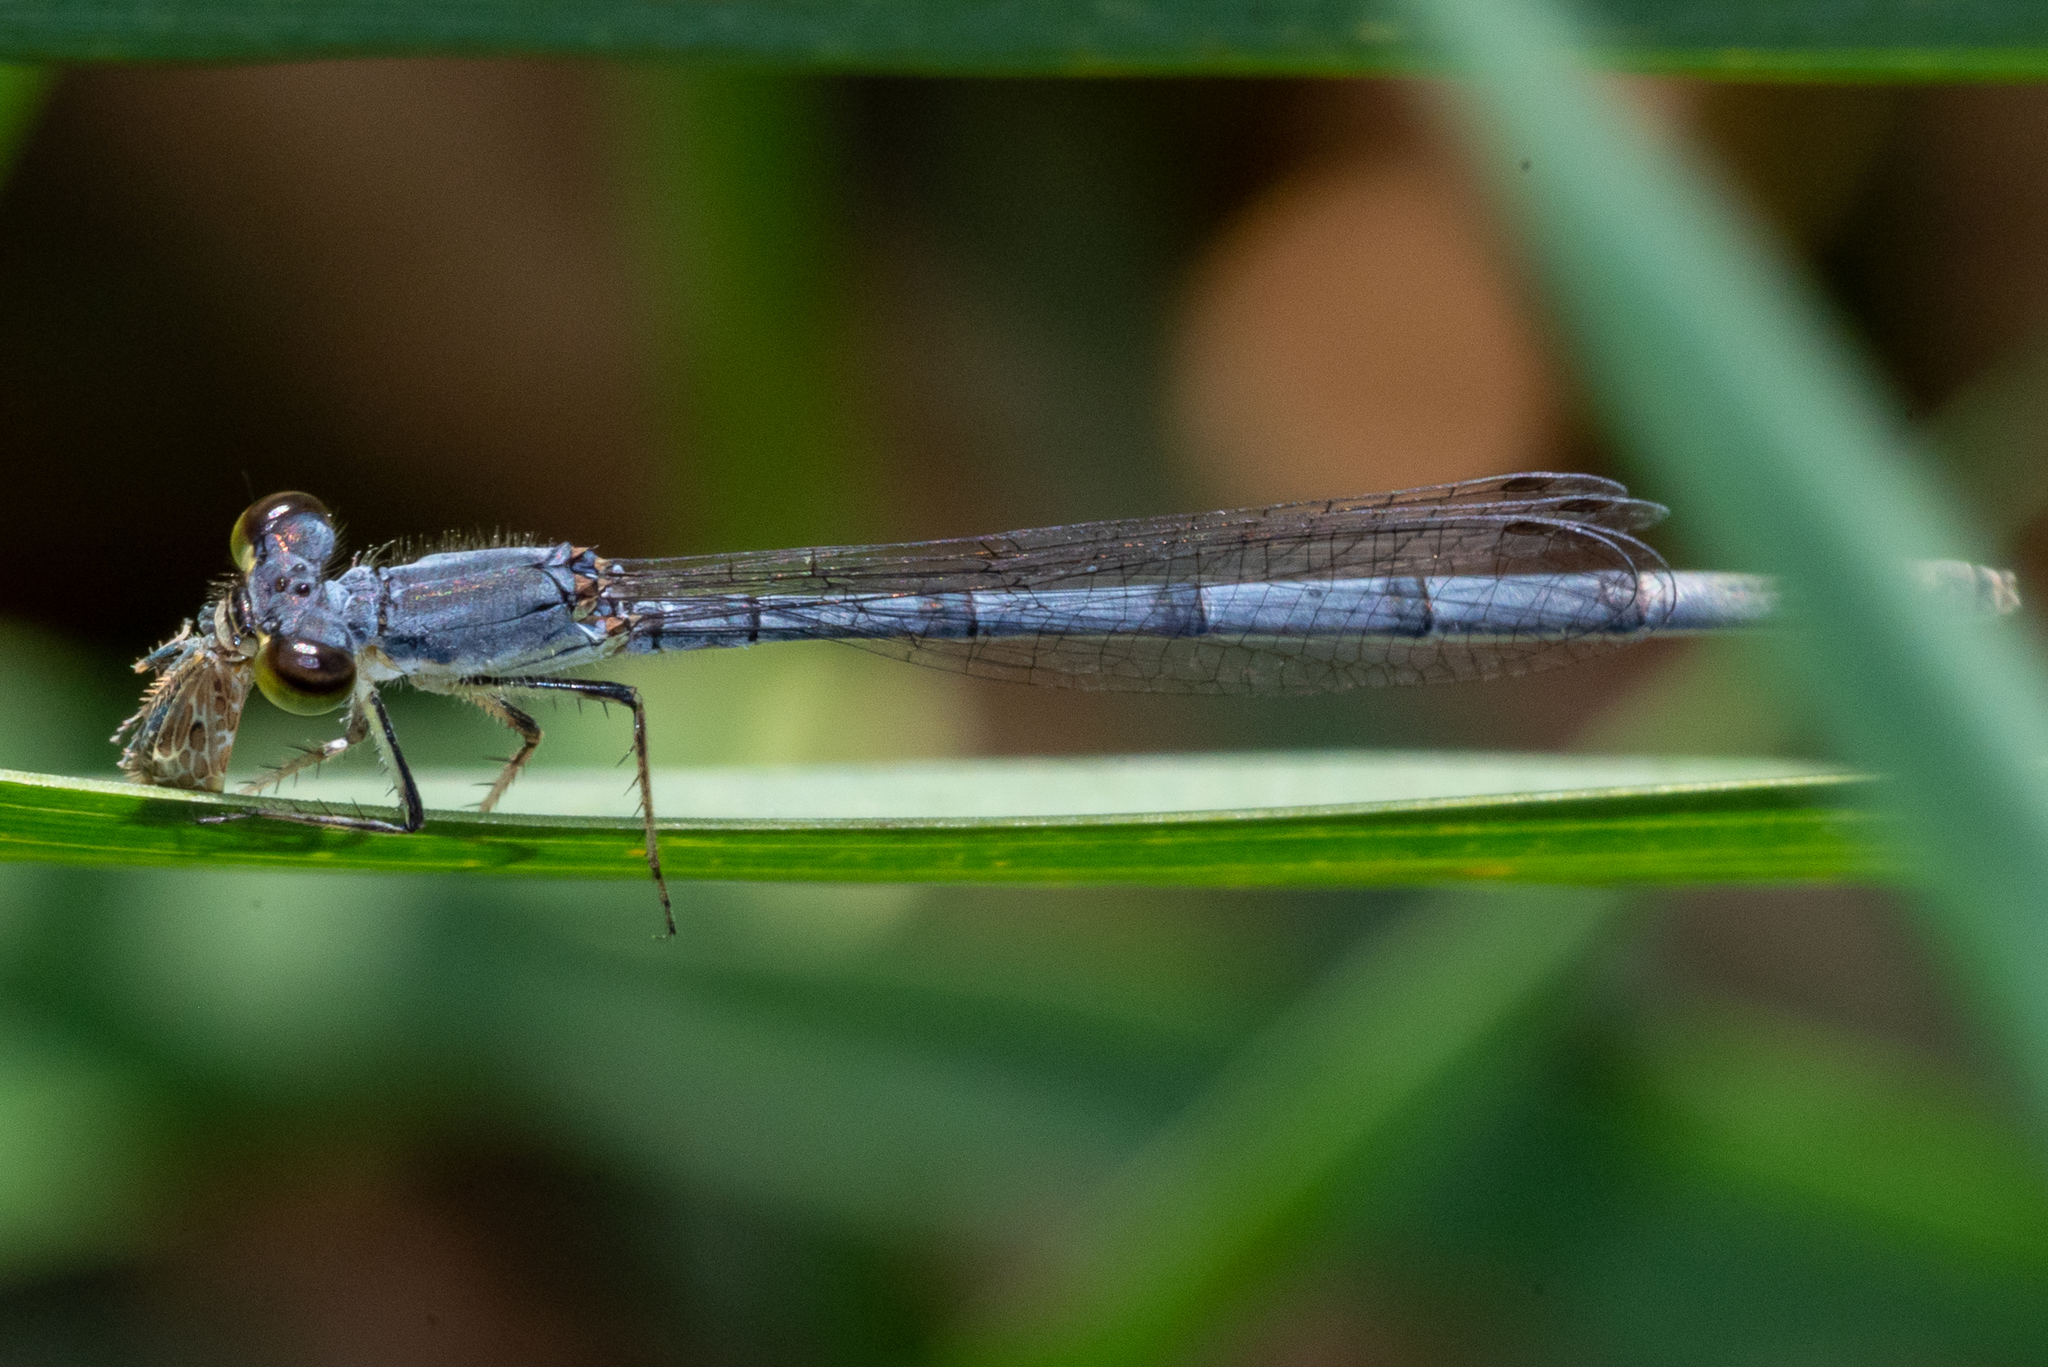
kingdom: Animalia
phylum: Arthropoda
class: Insecta
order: Odonata
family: Coenagrionidae
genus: Ischnura
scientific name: Ischnura posita
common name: Fragile forktail
